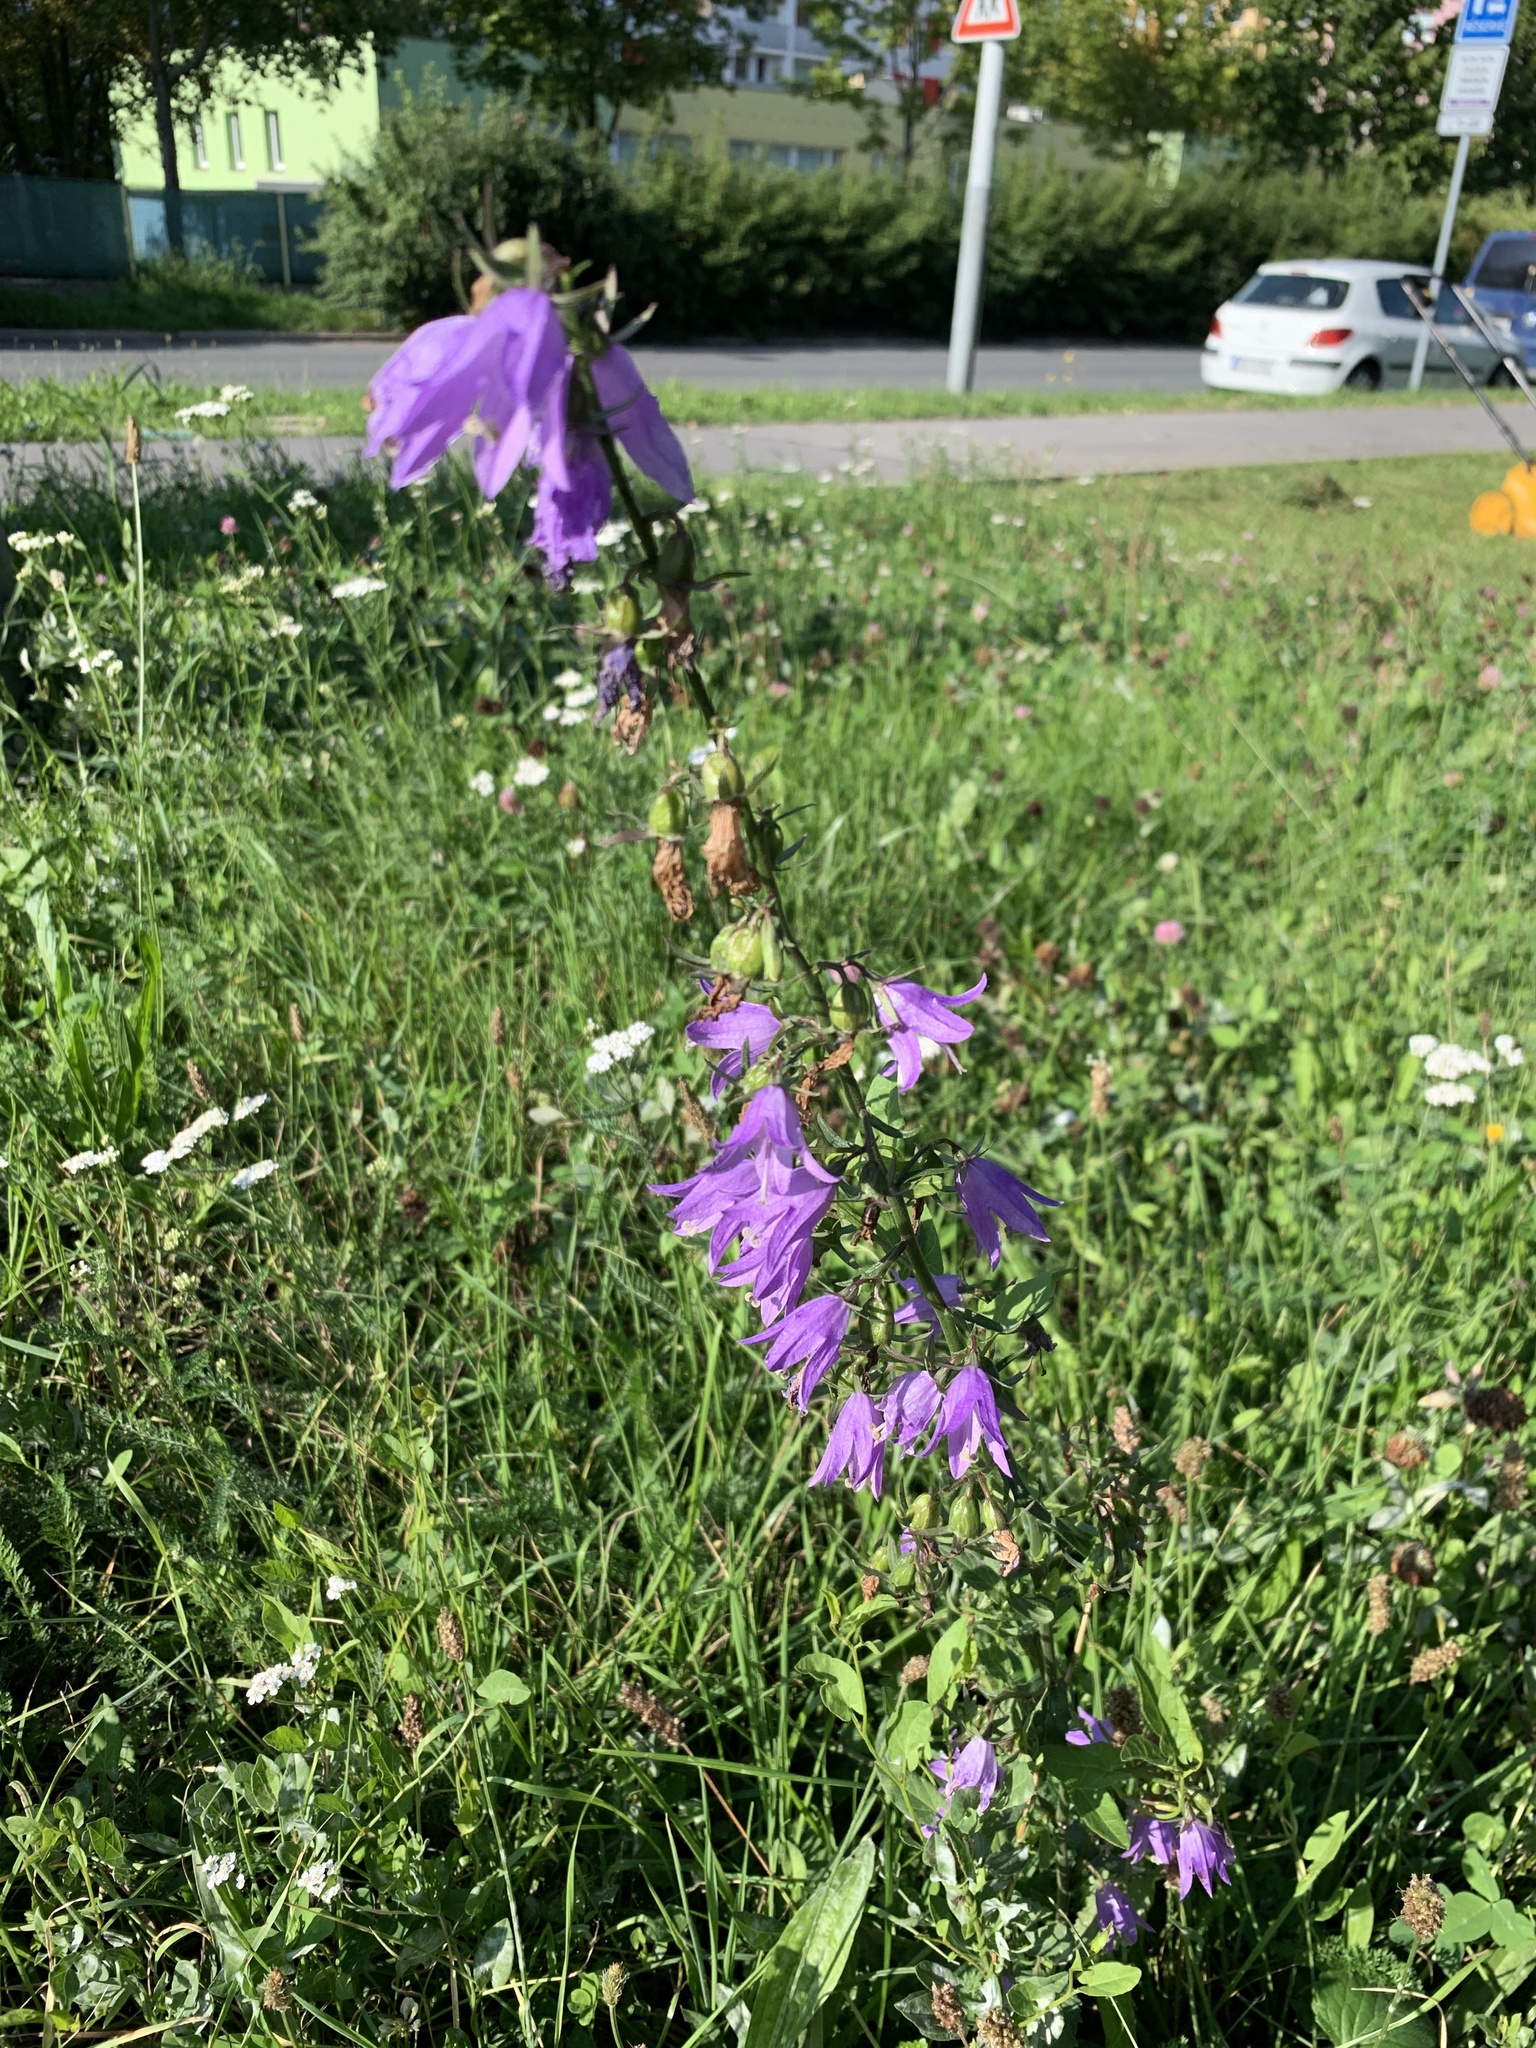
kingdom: Plantae
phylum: Tracheophyta
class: Magnoliopsida
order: Asterales
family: Campanulaceae
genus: Campanula
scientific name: Campanula rapunculoides
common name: Creeping bellflower
